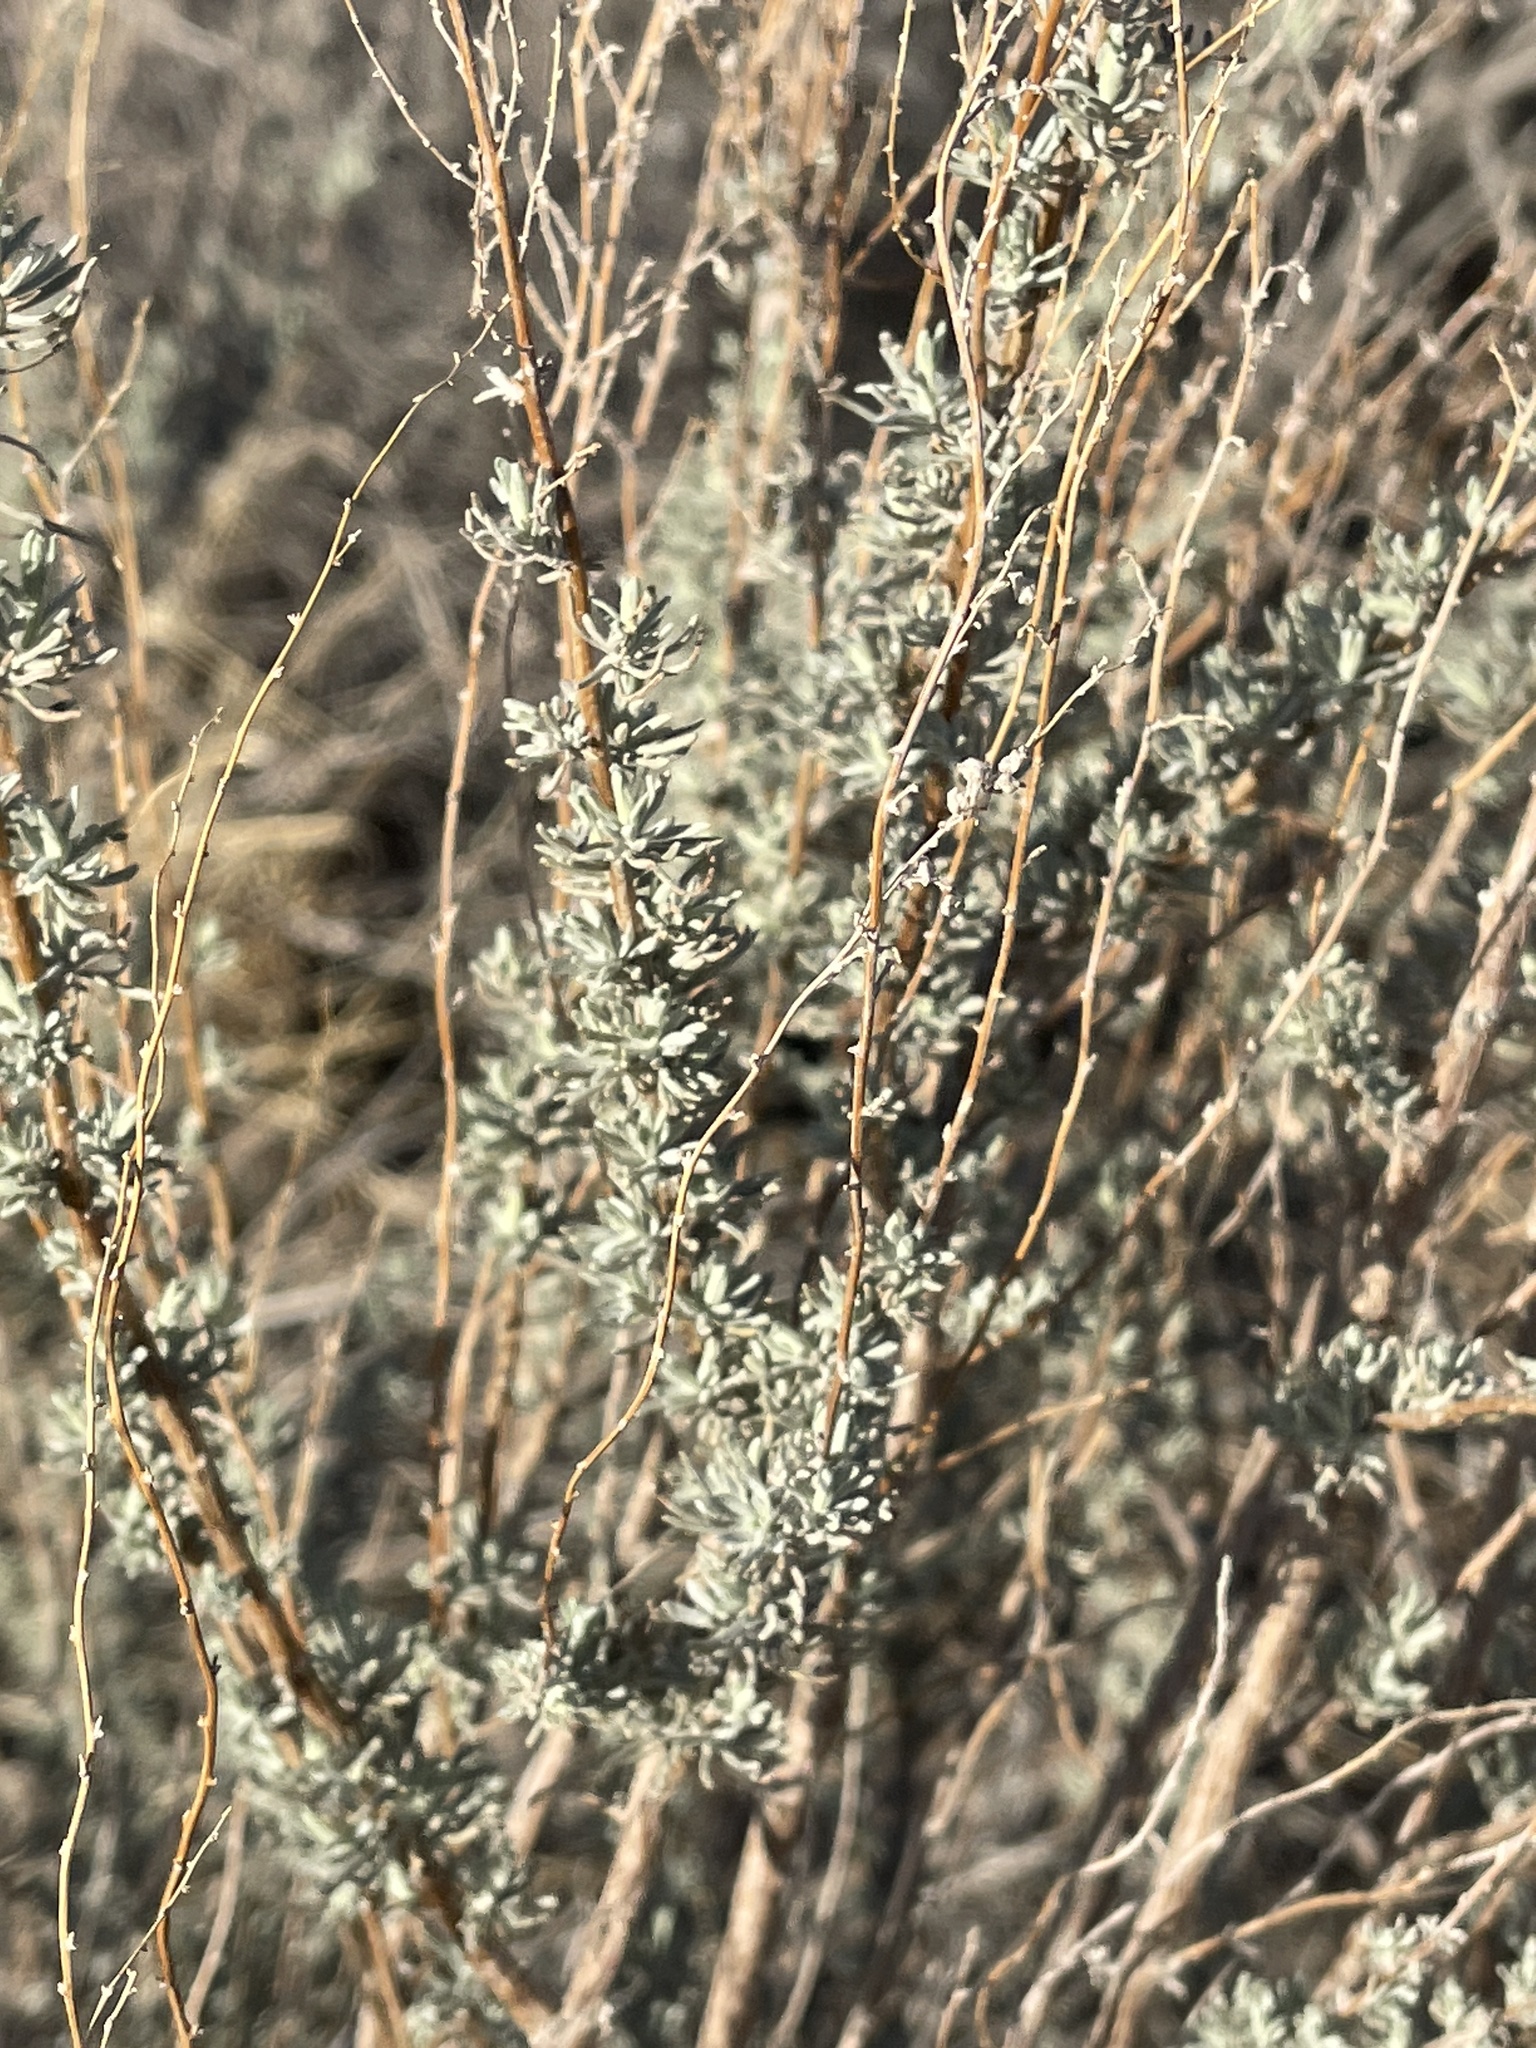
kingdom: Plantae
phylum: Tracheophyta
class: Magnoliopsida
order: Asterales
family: Asteraceae
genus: Artemisia
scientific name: Artemisia filifolia
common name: Sand-sage
